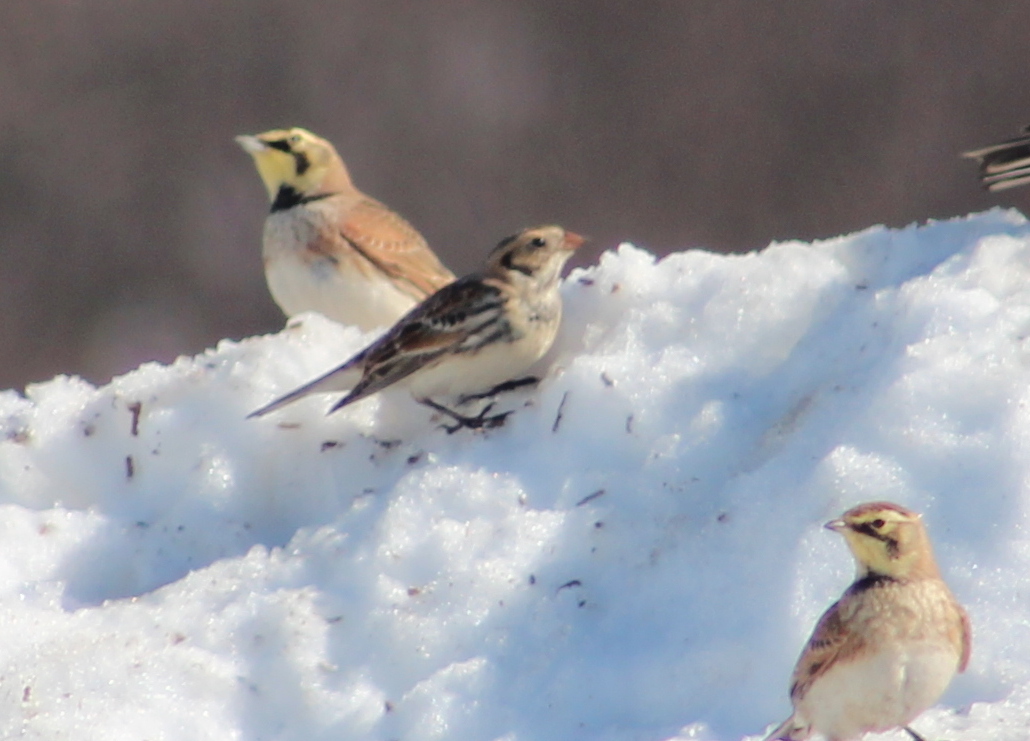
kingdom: Animalia
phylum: Chordata
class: Aves
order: Passeriformes
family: Calcariidae
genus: Calcarius
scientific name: Calcarius lapponicus
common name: Lapland longspur
